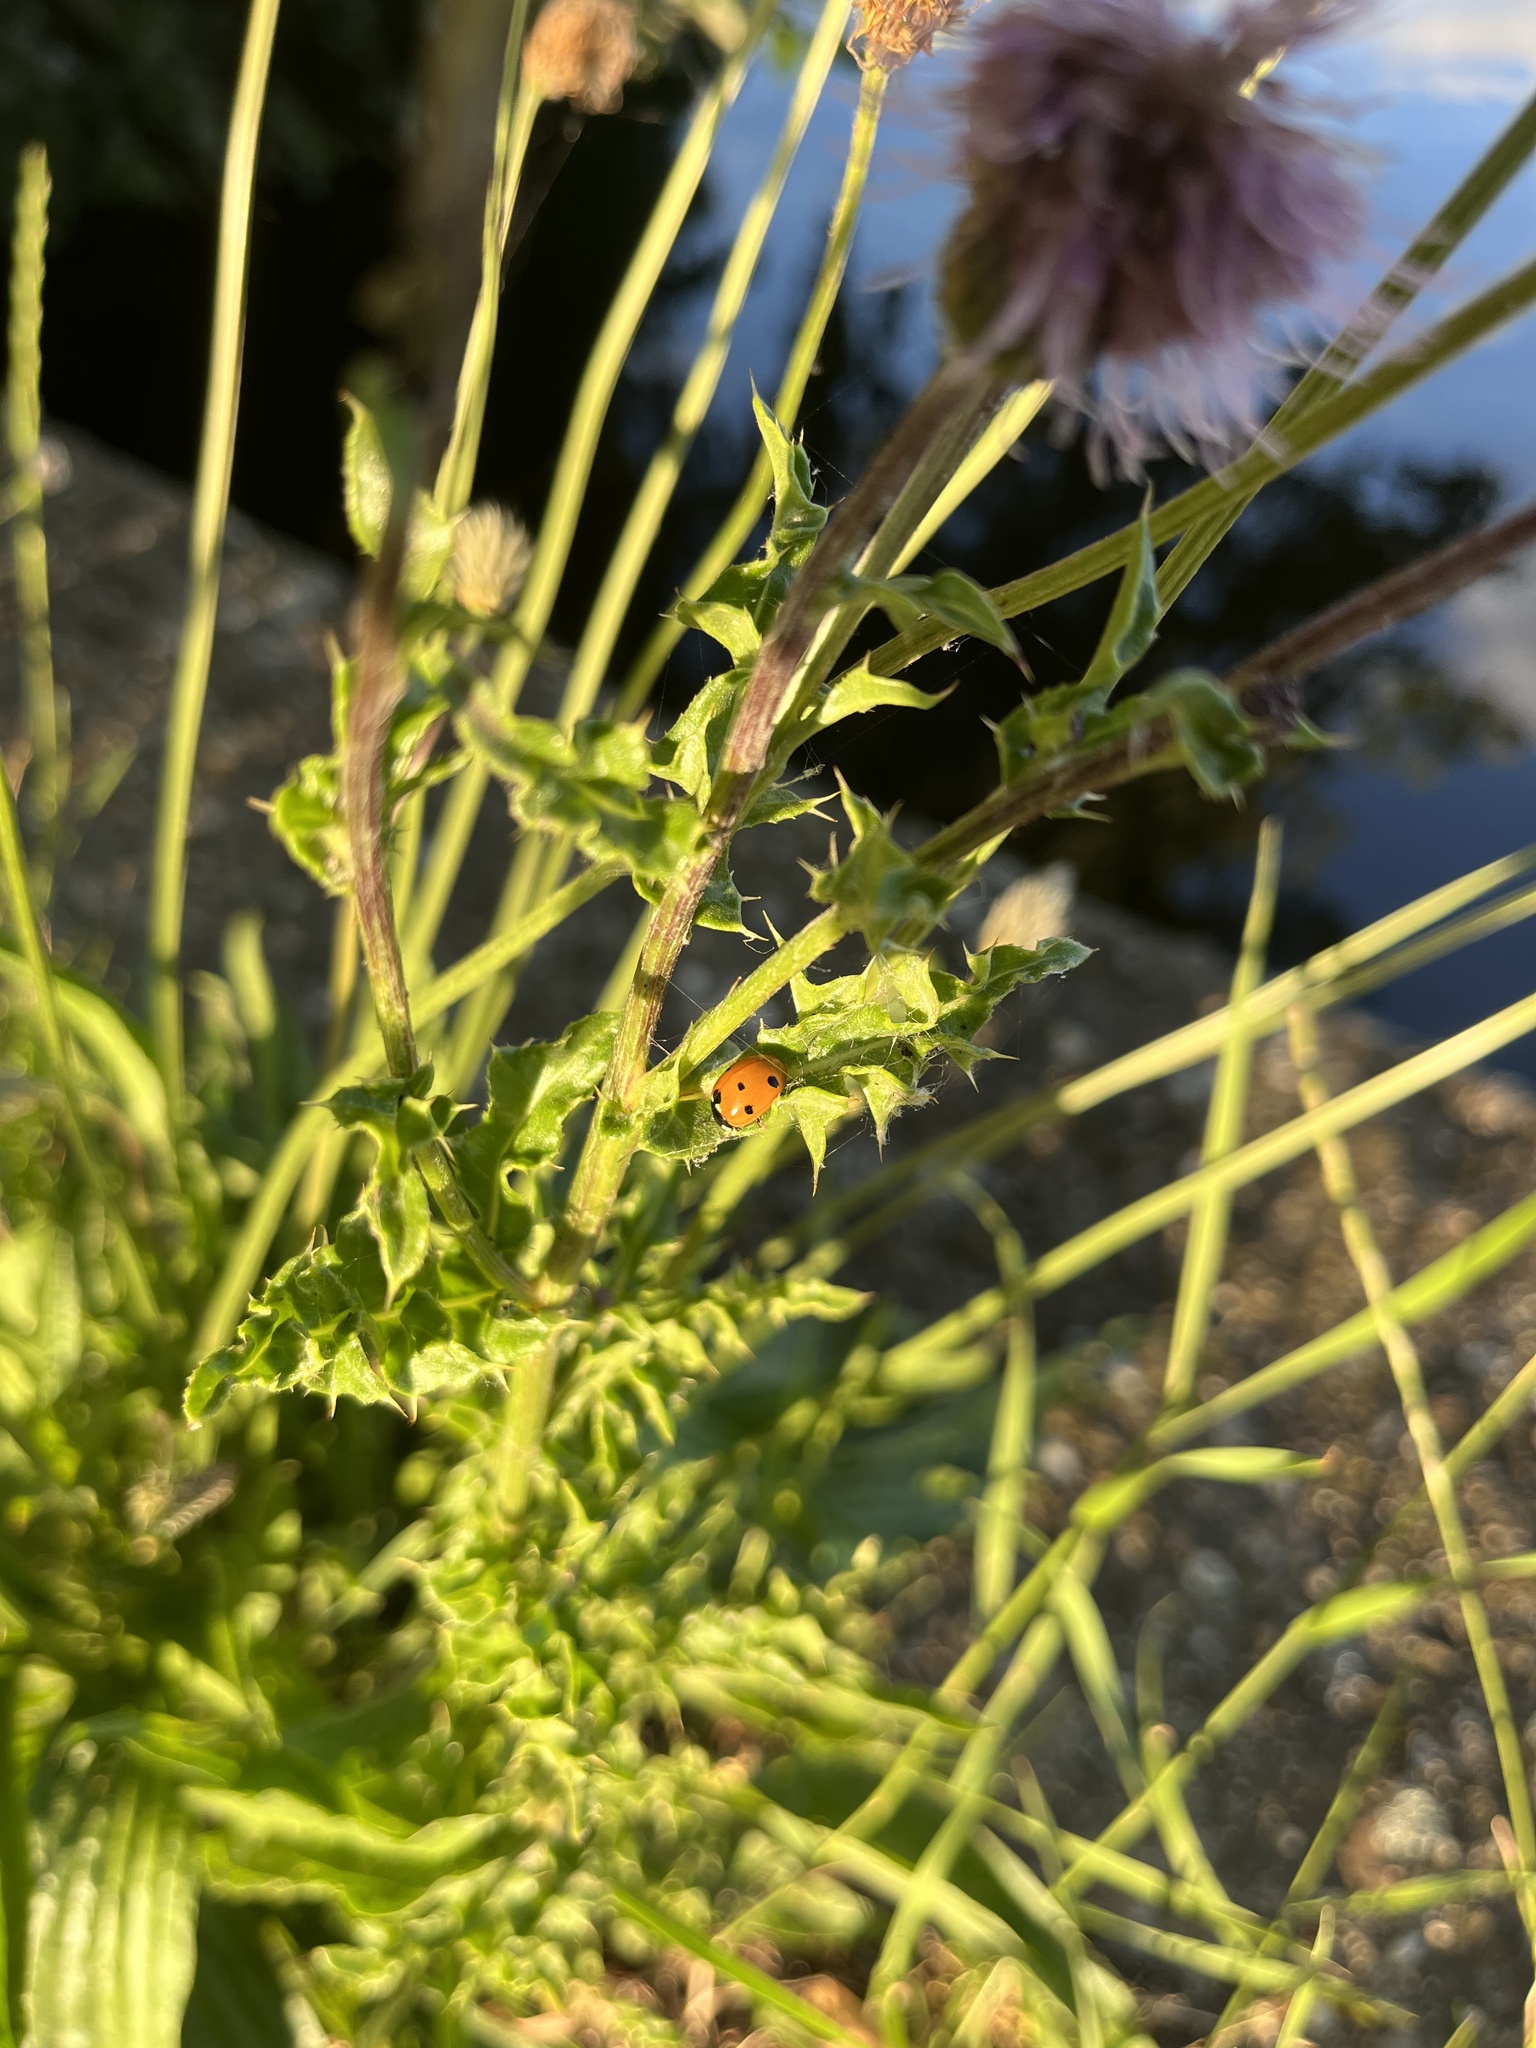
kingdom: Animalia
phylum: Arthropoda
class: Insecta
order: Coleoptera
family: Coccinellidae
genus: Coccinella
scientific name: Coccinella septempunctata
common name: Sevenspotted lady beetle
